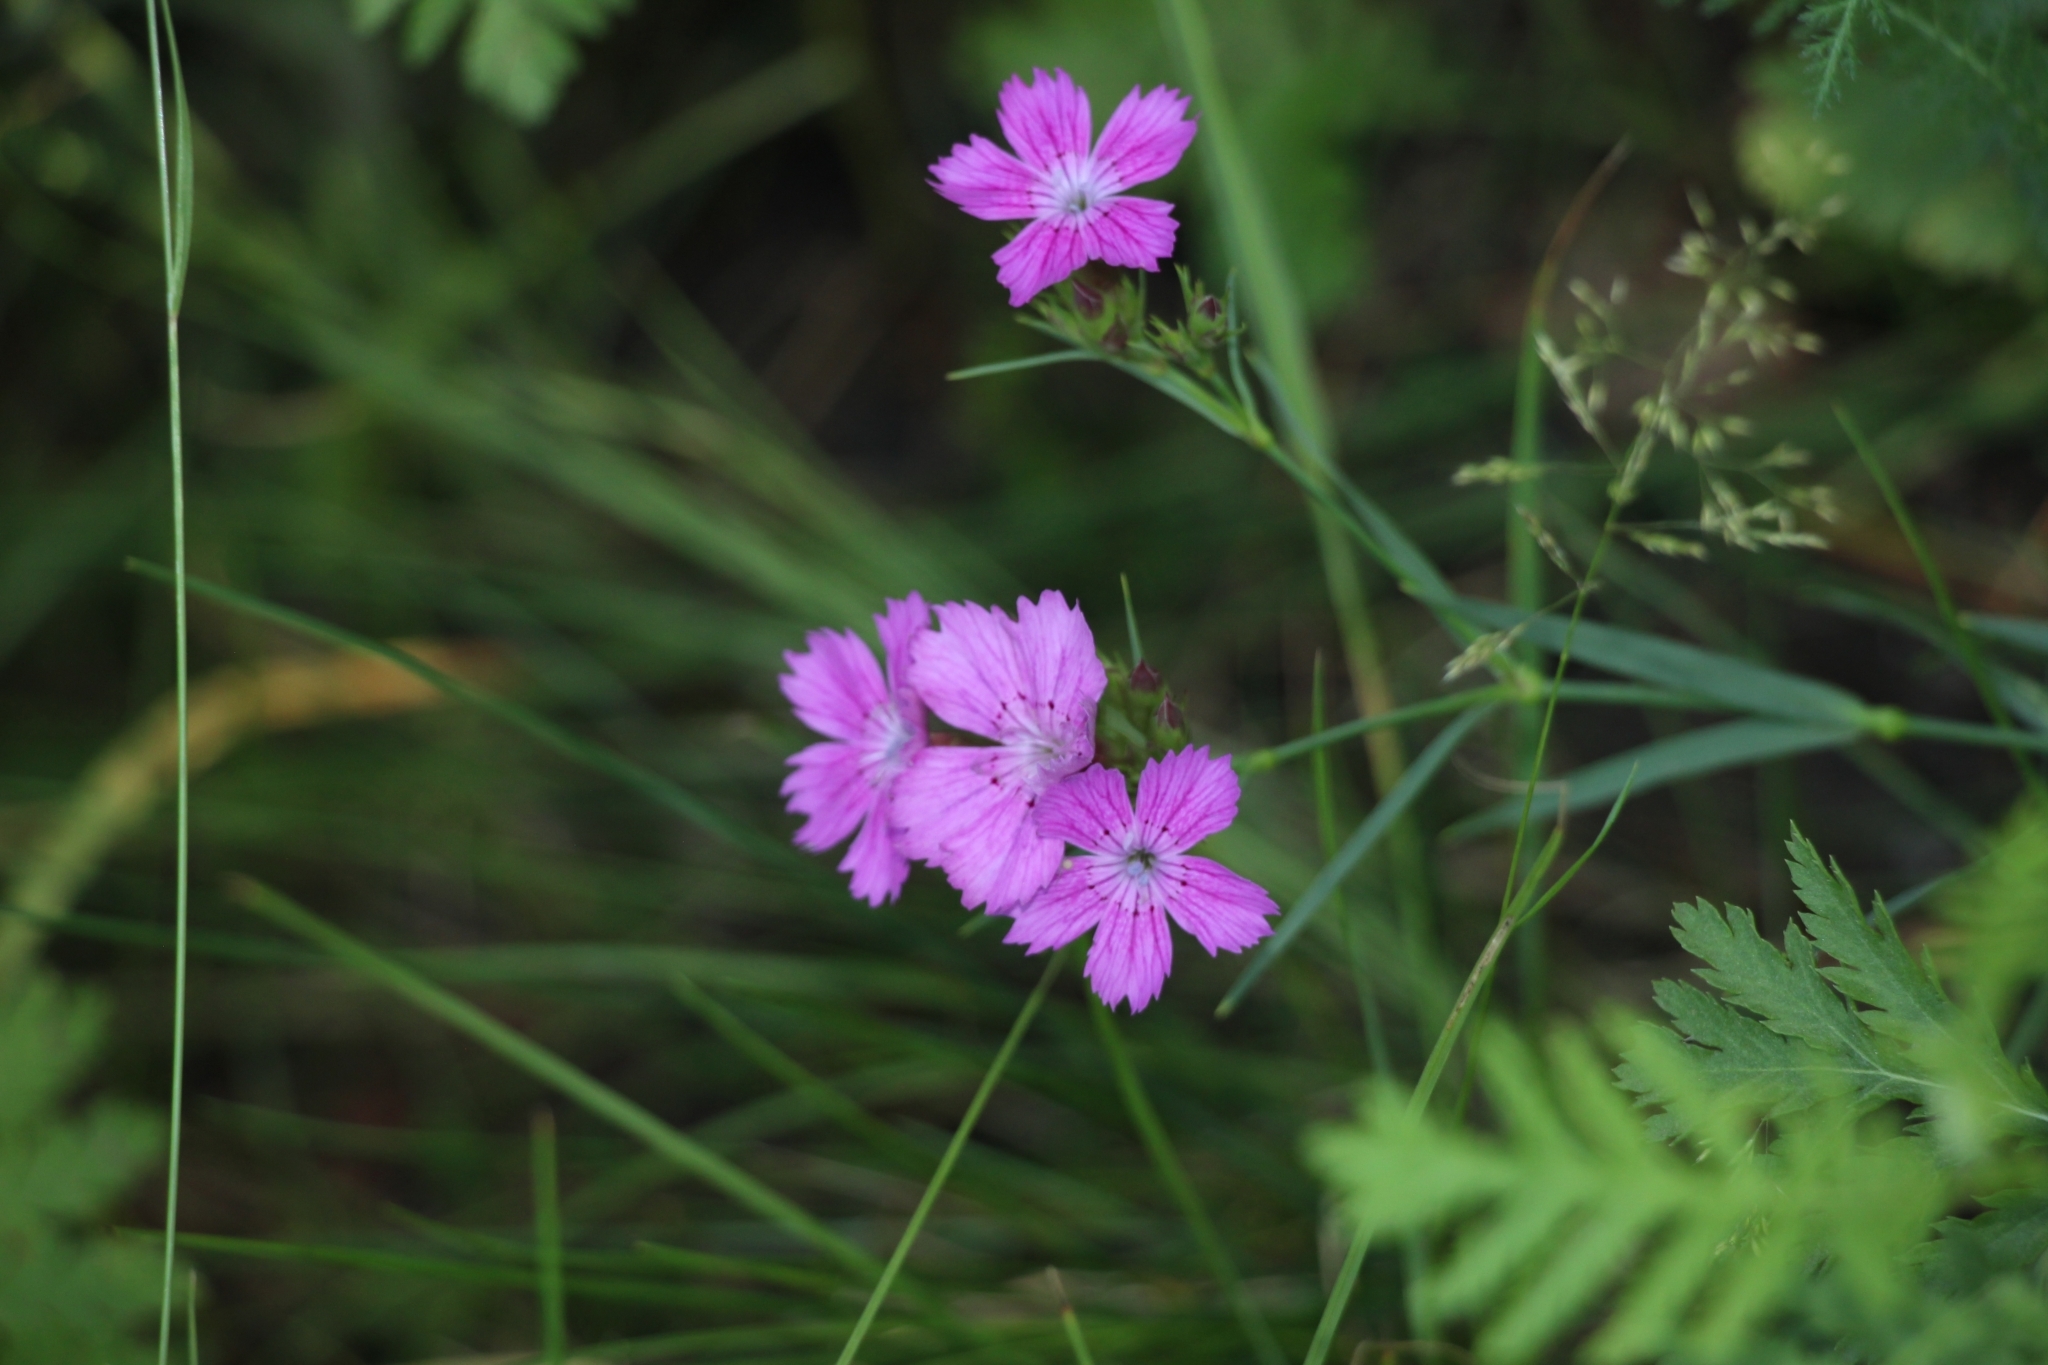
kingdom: Plantae
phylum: Tracheophyta
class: Magnoliopsida
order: Caryophyllales
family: Caryophyllaceae
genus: Dianthus
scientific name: Dianthus chinensis
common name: Rainbow pink
